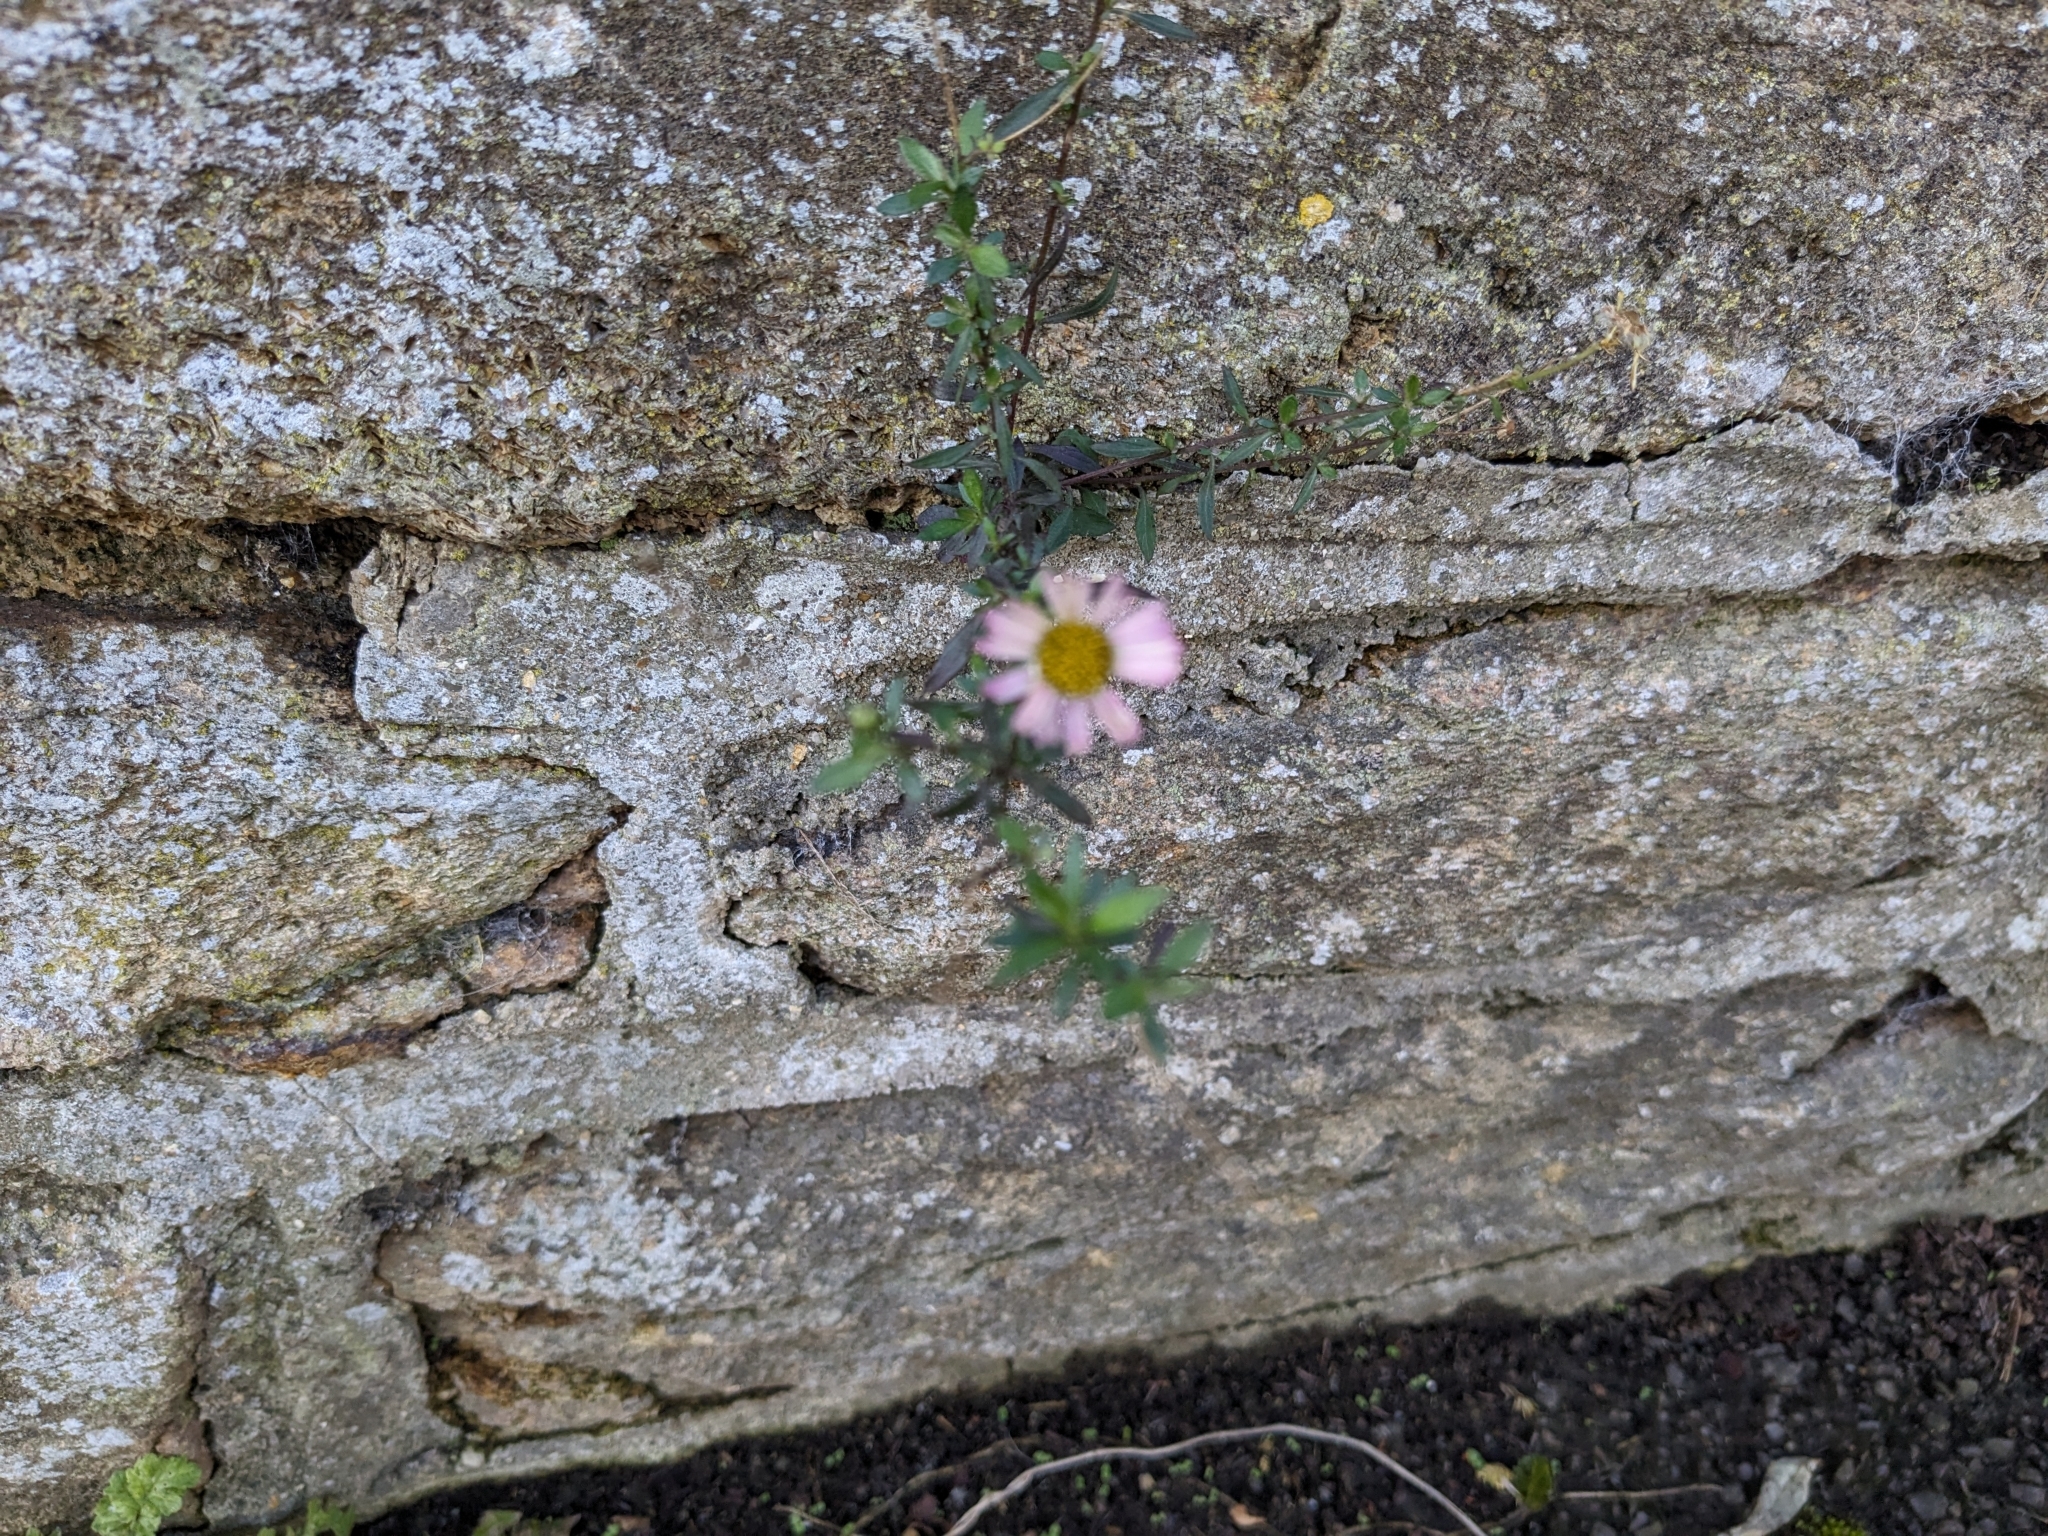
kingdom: Plantae
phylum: Tracheophyta
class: Magnoliopsida
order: Asterales
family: Asteraceae
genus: Erigeron
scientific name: Erigeron karvinskianus
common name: Mexican fleabane
